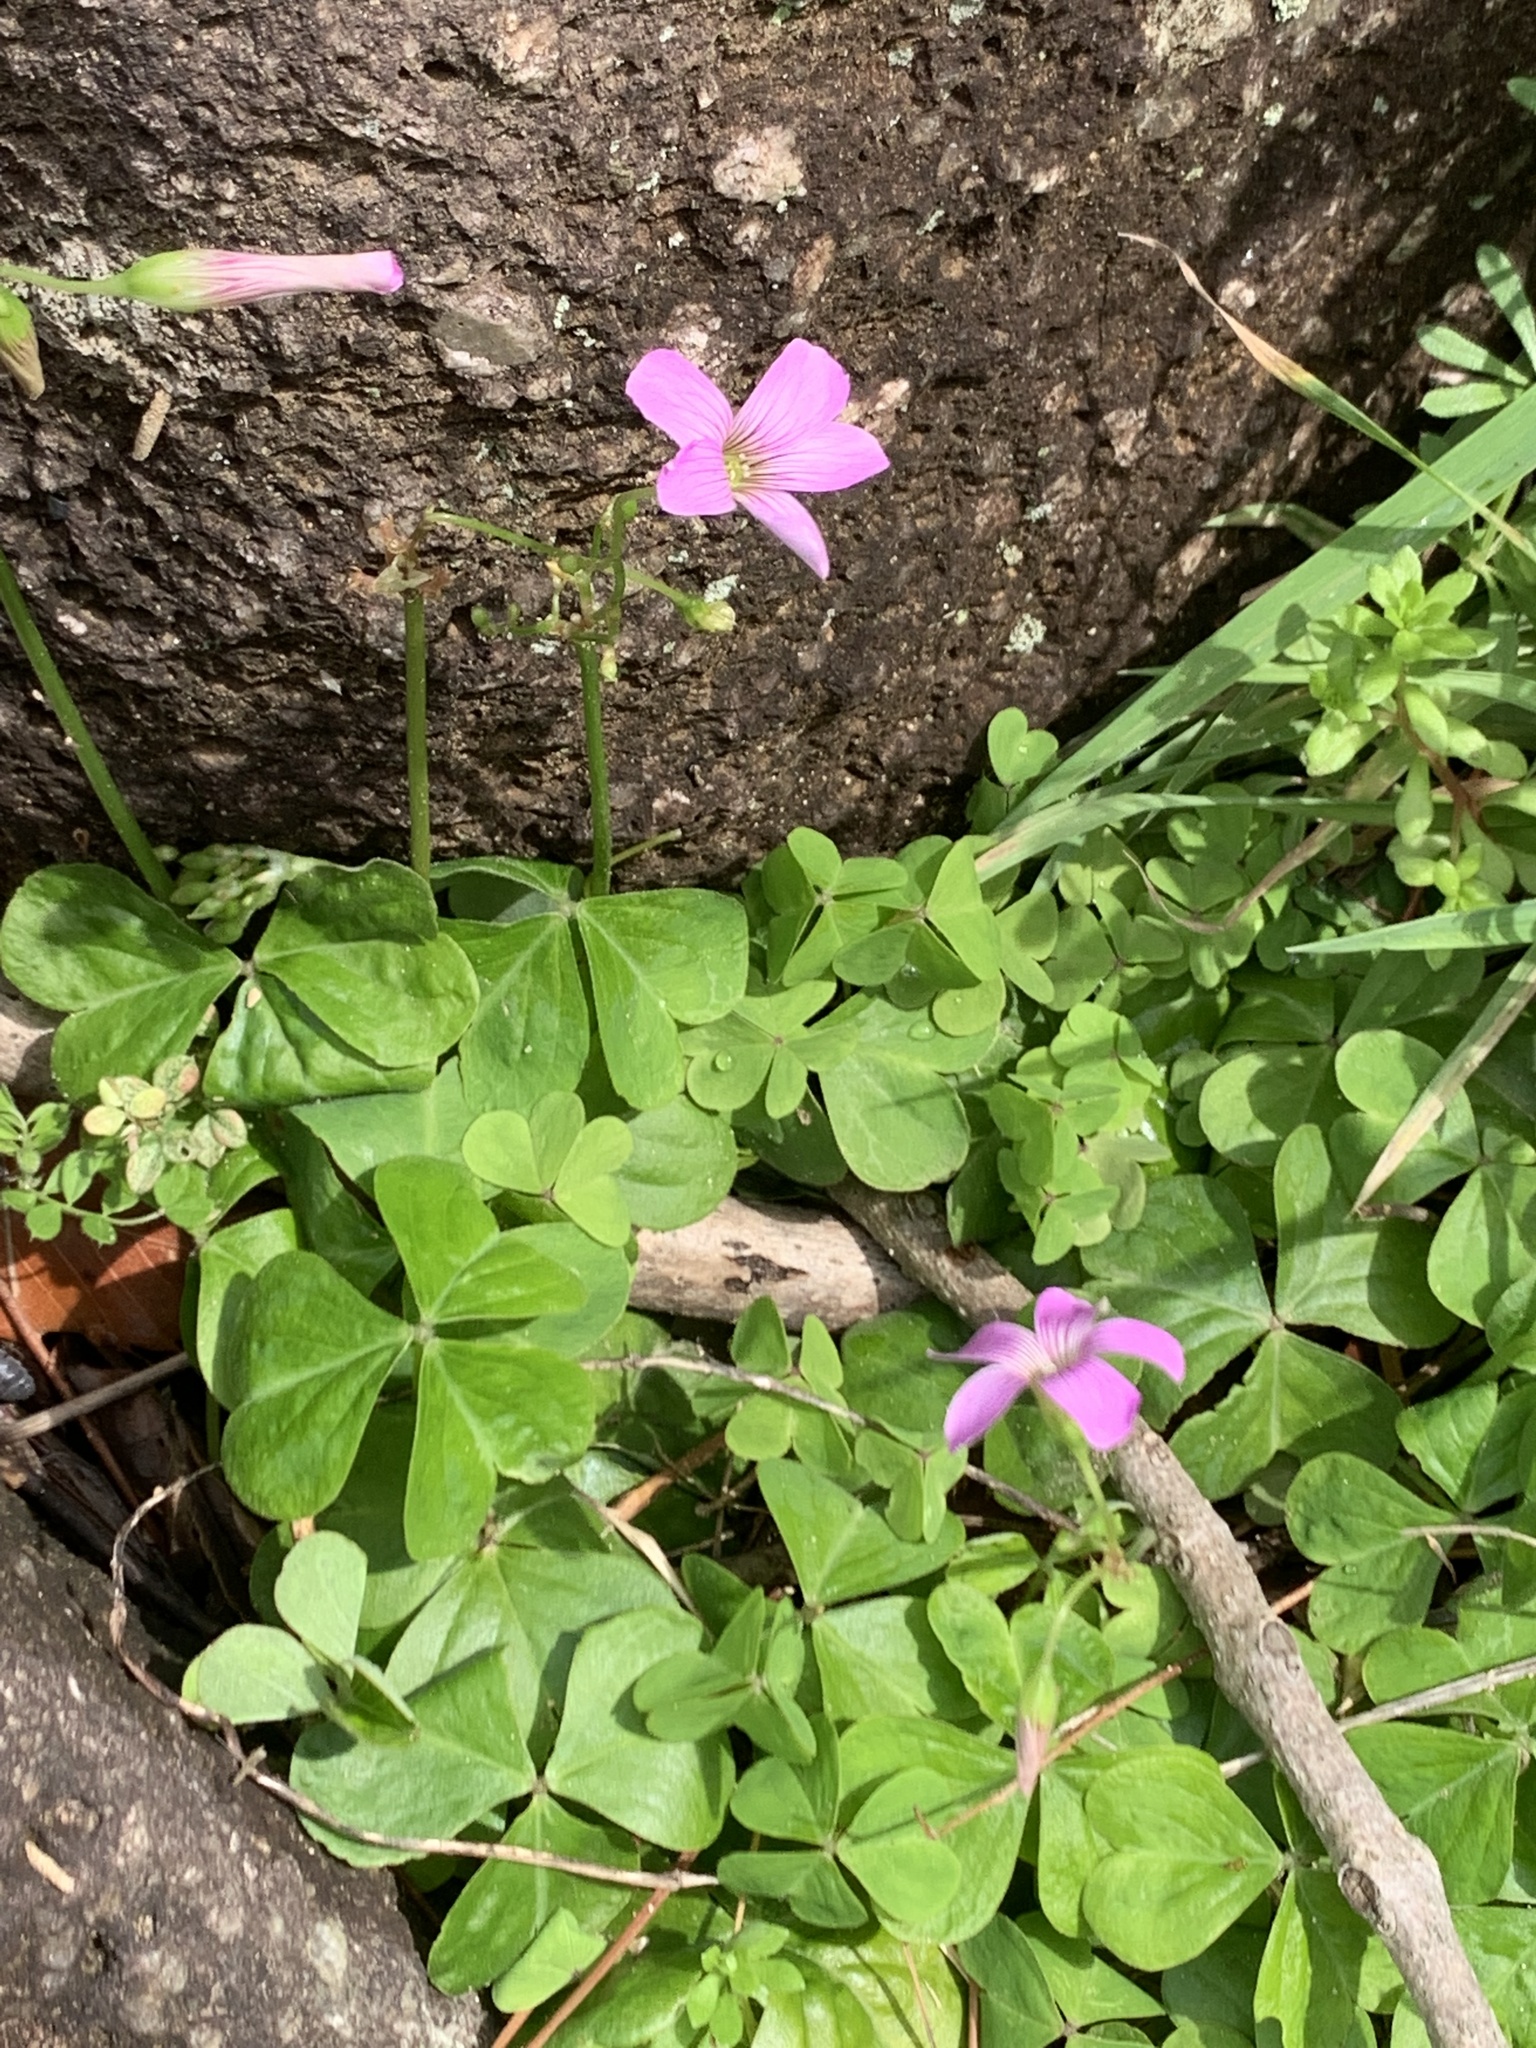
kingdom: Plantae
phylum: Tracheophyta
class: Magnoliopsida
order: Oxalidales
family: Oxalidaceae
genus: Oxalis
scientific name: Oxalis debilis
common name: Large-flowered pink-sorrel
